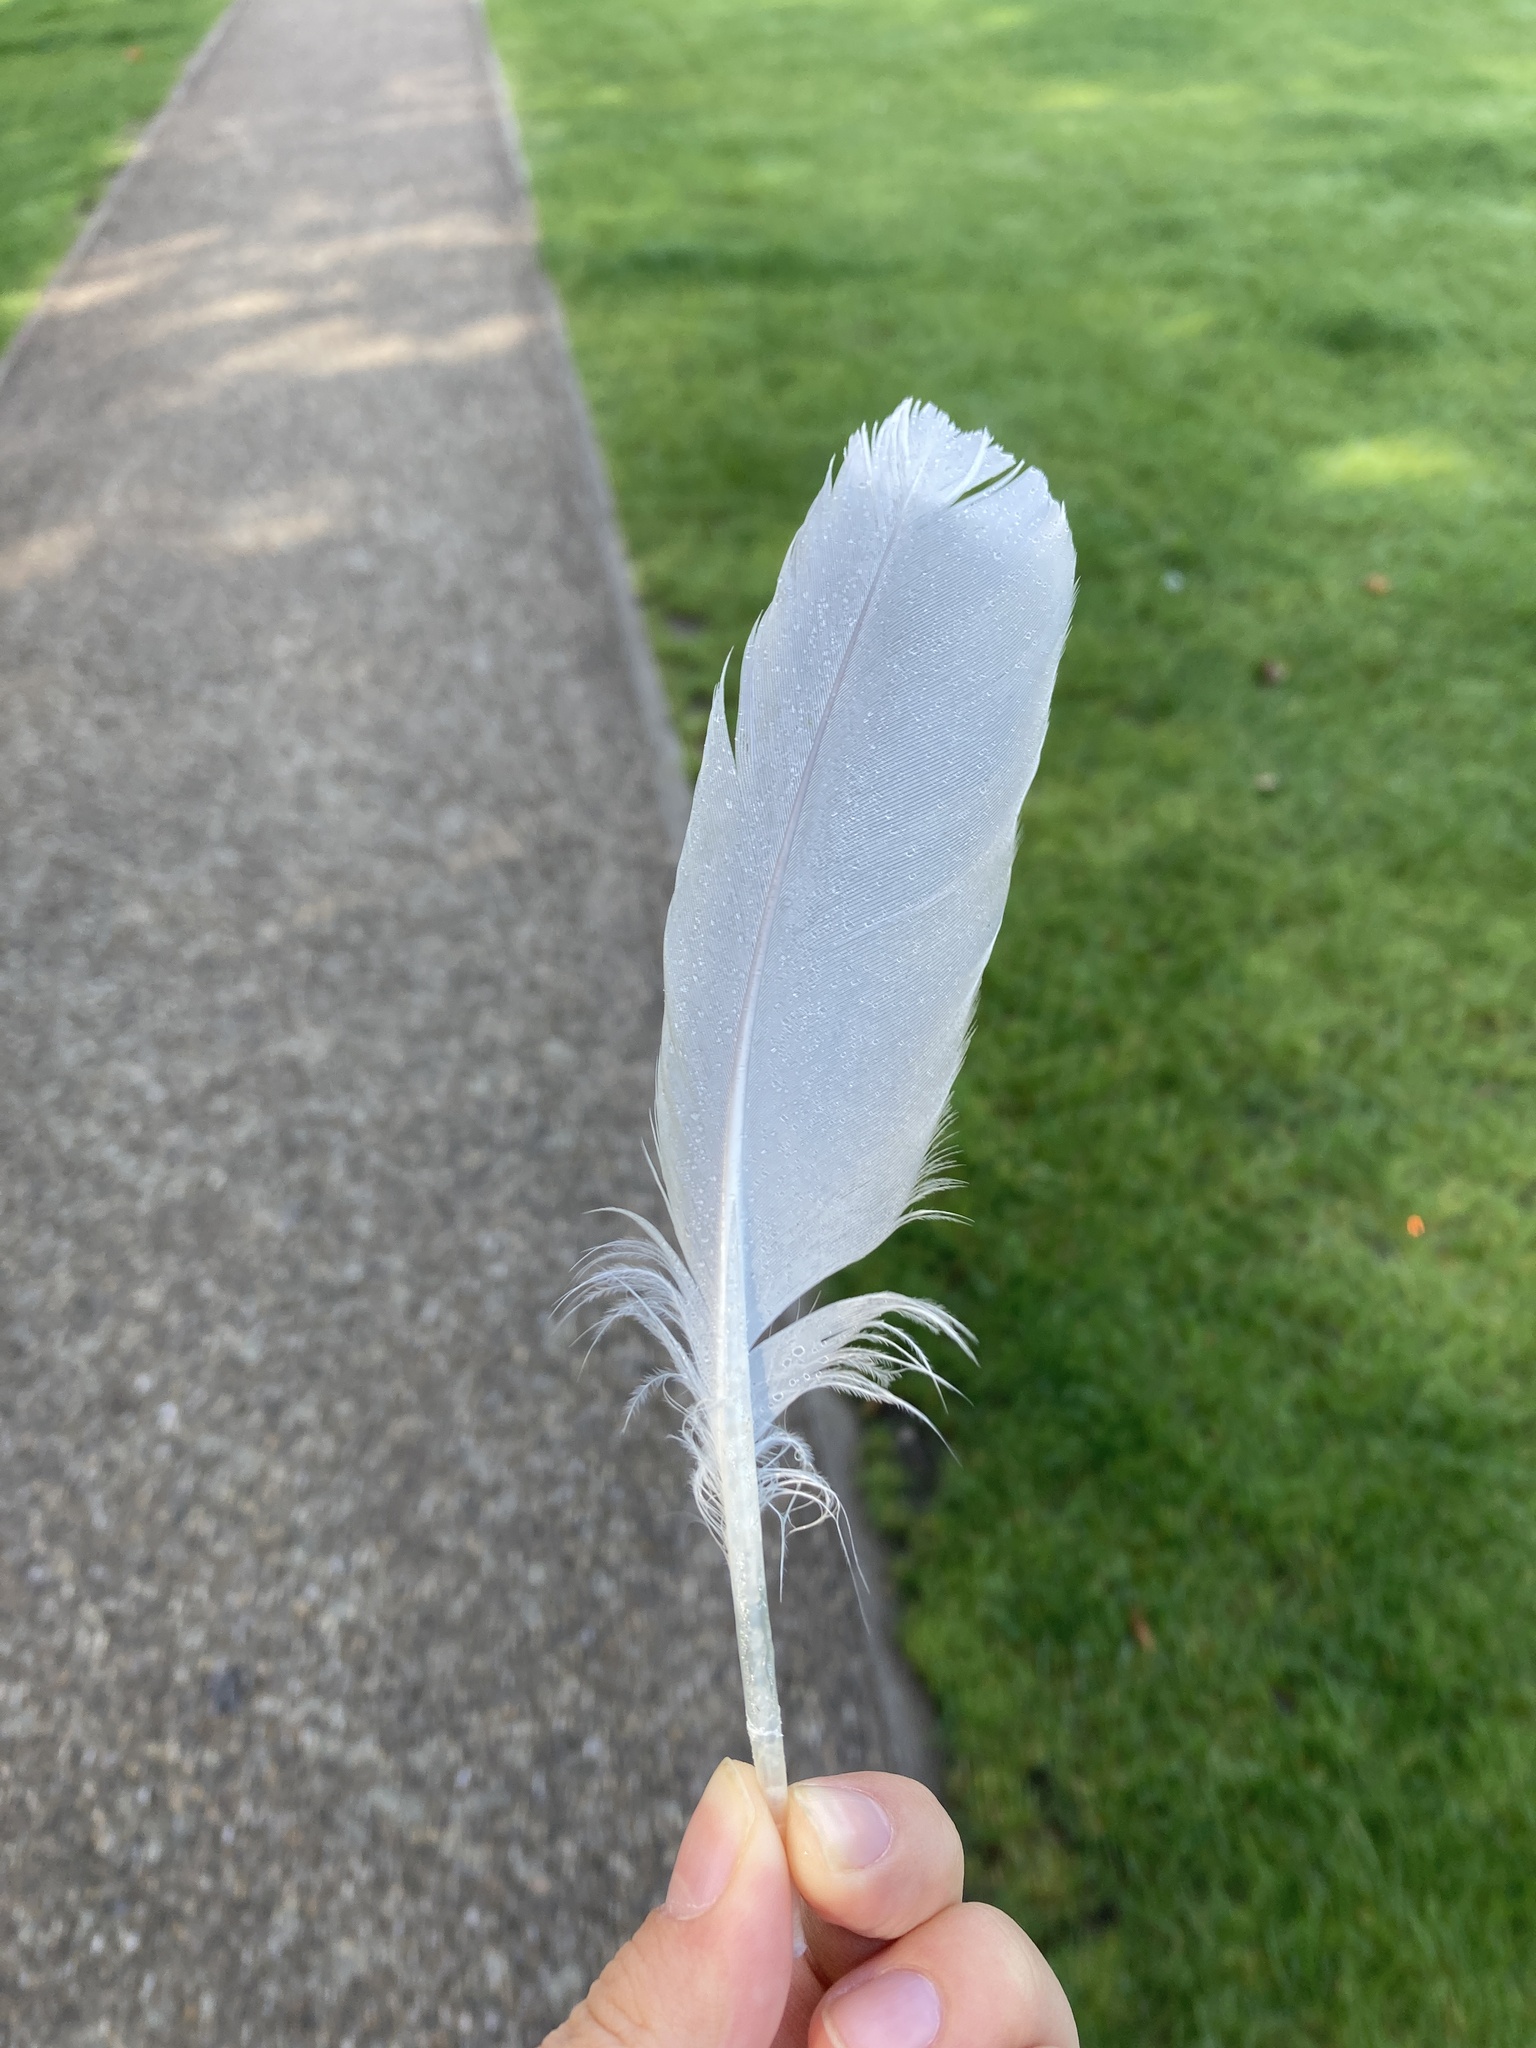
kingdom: Animalia
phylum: Chordata
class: Aves
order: Charadriiformes
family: Laridae
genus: Larus
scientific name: Larus argentatus
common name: Herring gull
